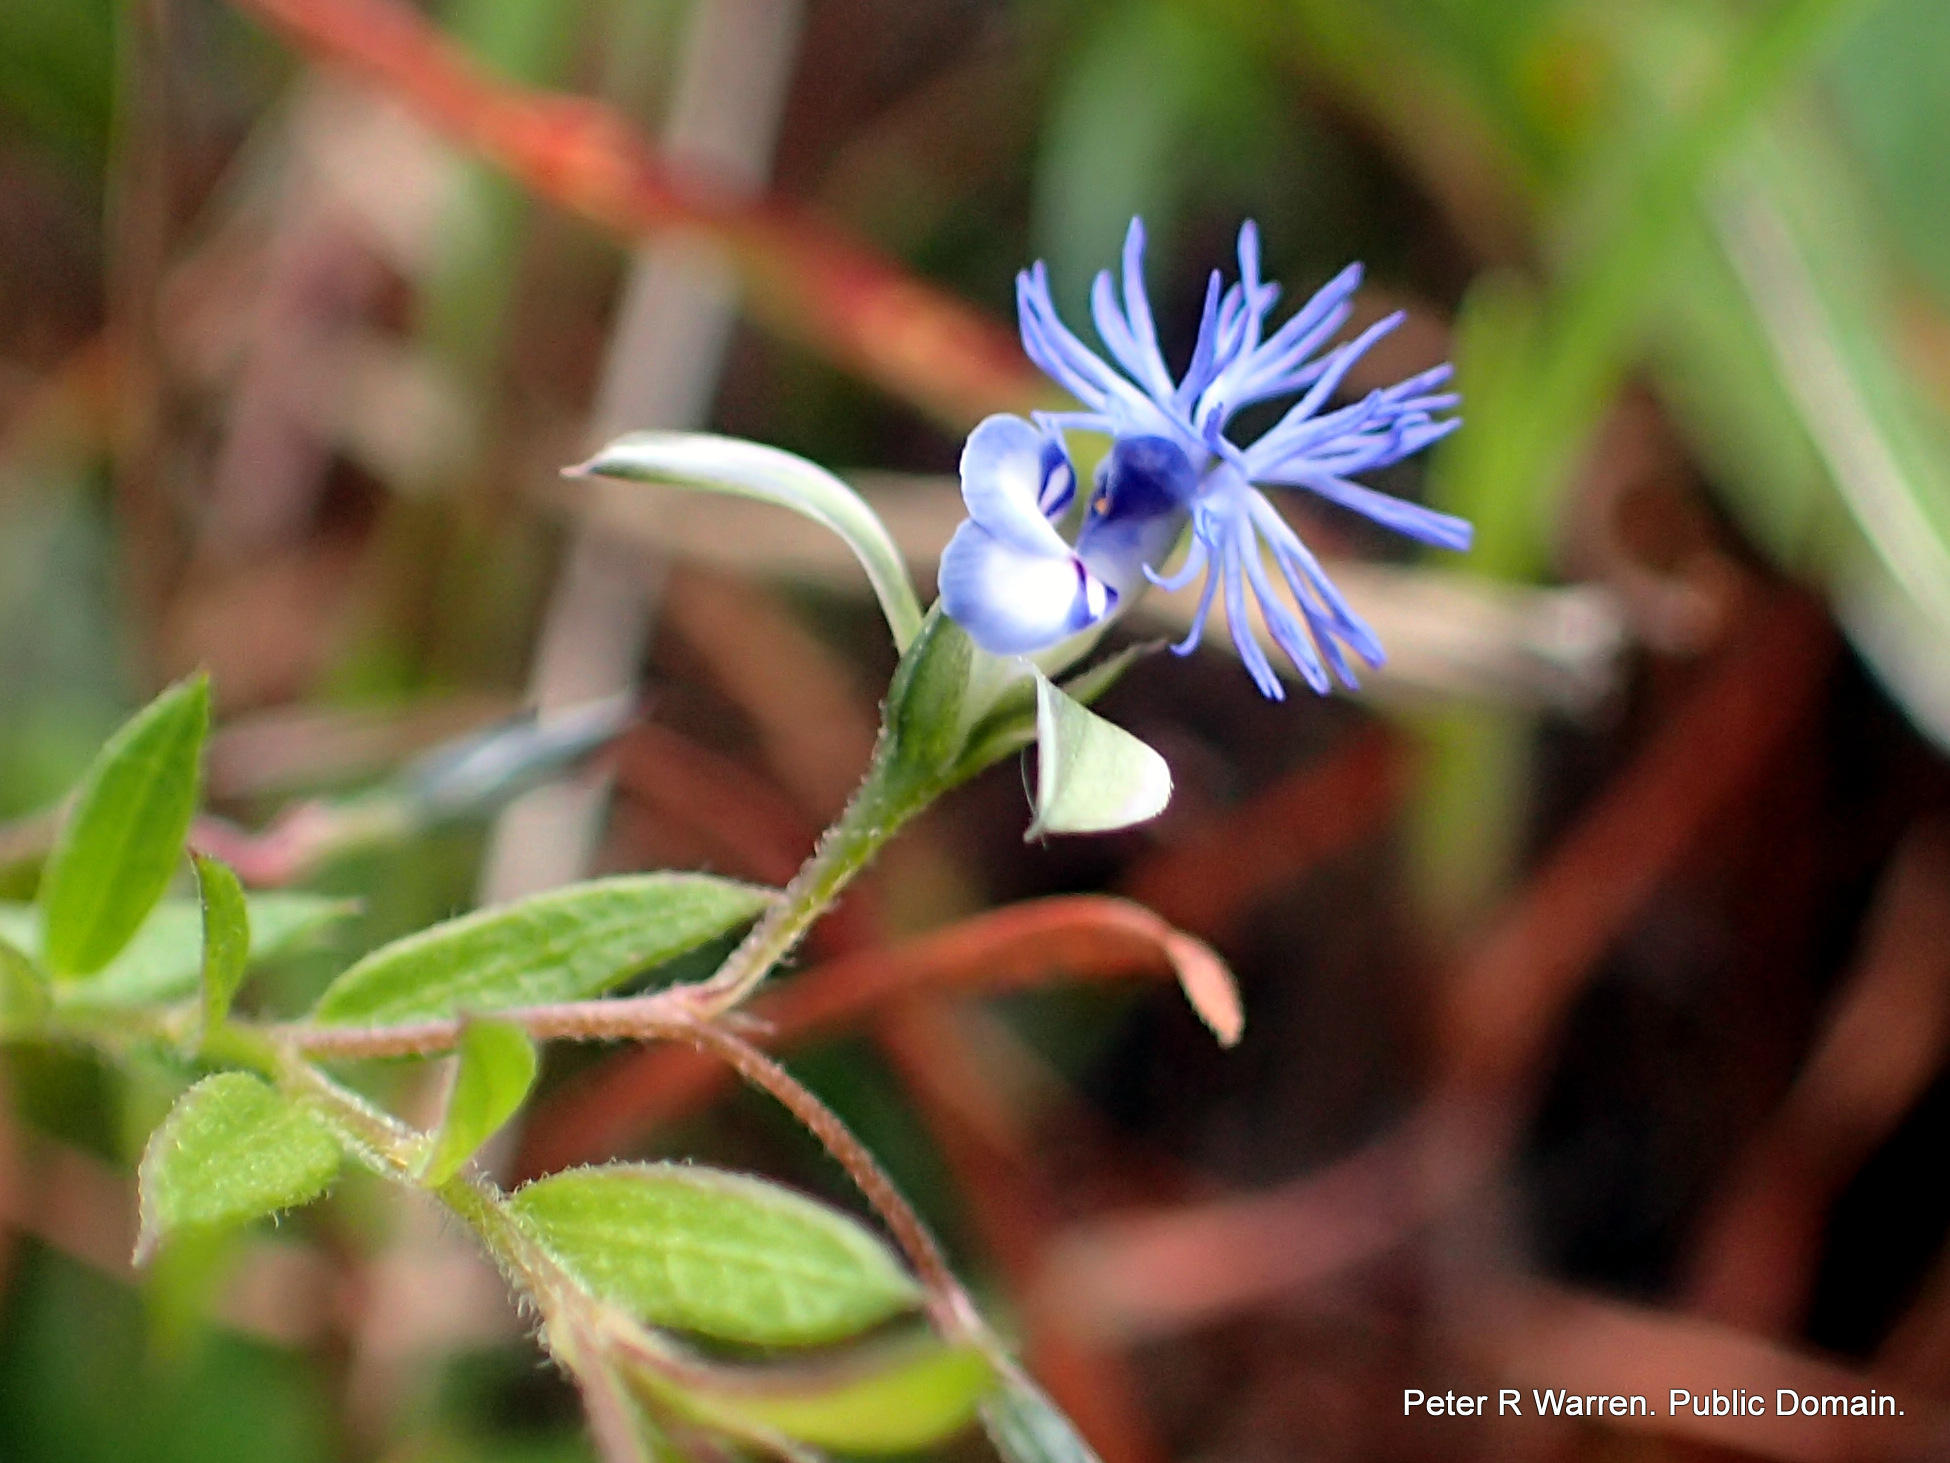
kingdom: Plantae
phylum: Tracheophyta
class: Magnoliopsida
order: Fabales
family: Polygalaceae
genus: Polygala
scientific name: Polygala gerrardii
